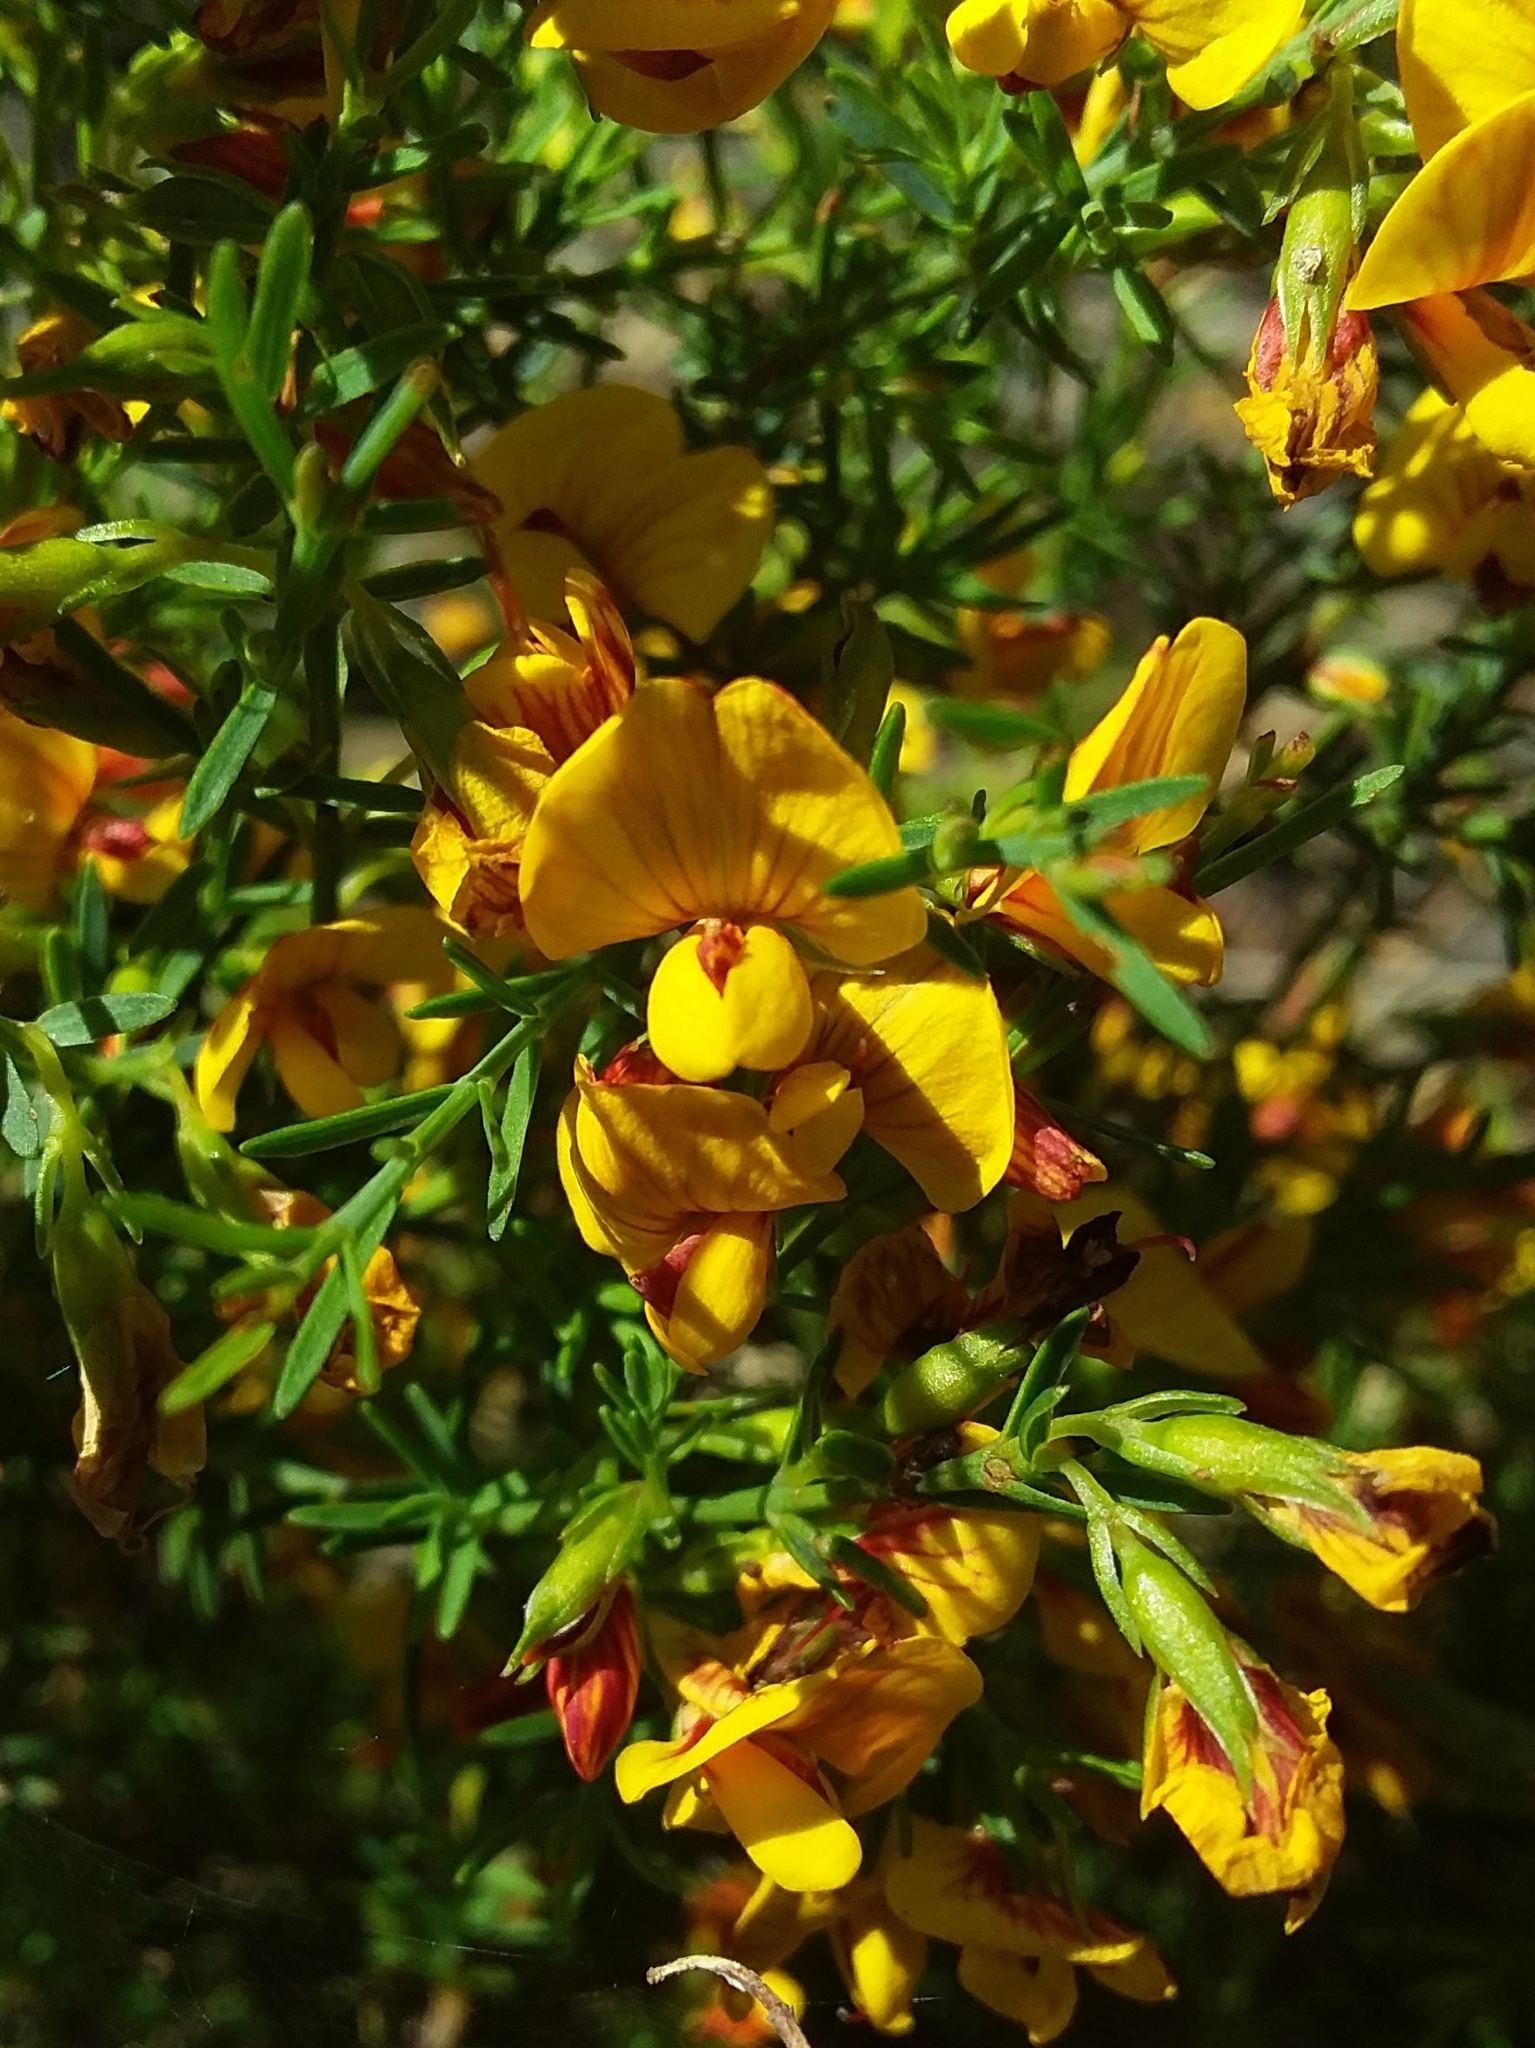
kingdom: Plantae
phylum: Tracheophyta
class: Magnoliopsida
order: Fabales
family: Fabaceae
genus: Eutaxia
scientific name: Eutaxia microphylla
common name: Mallee bush-pea
